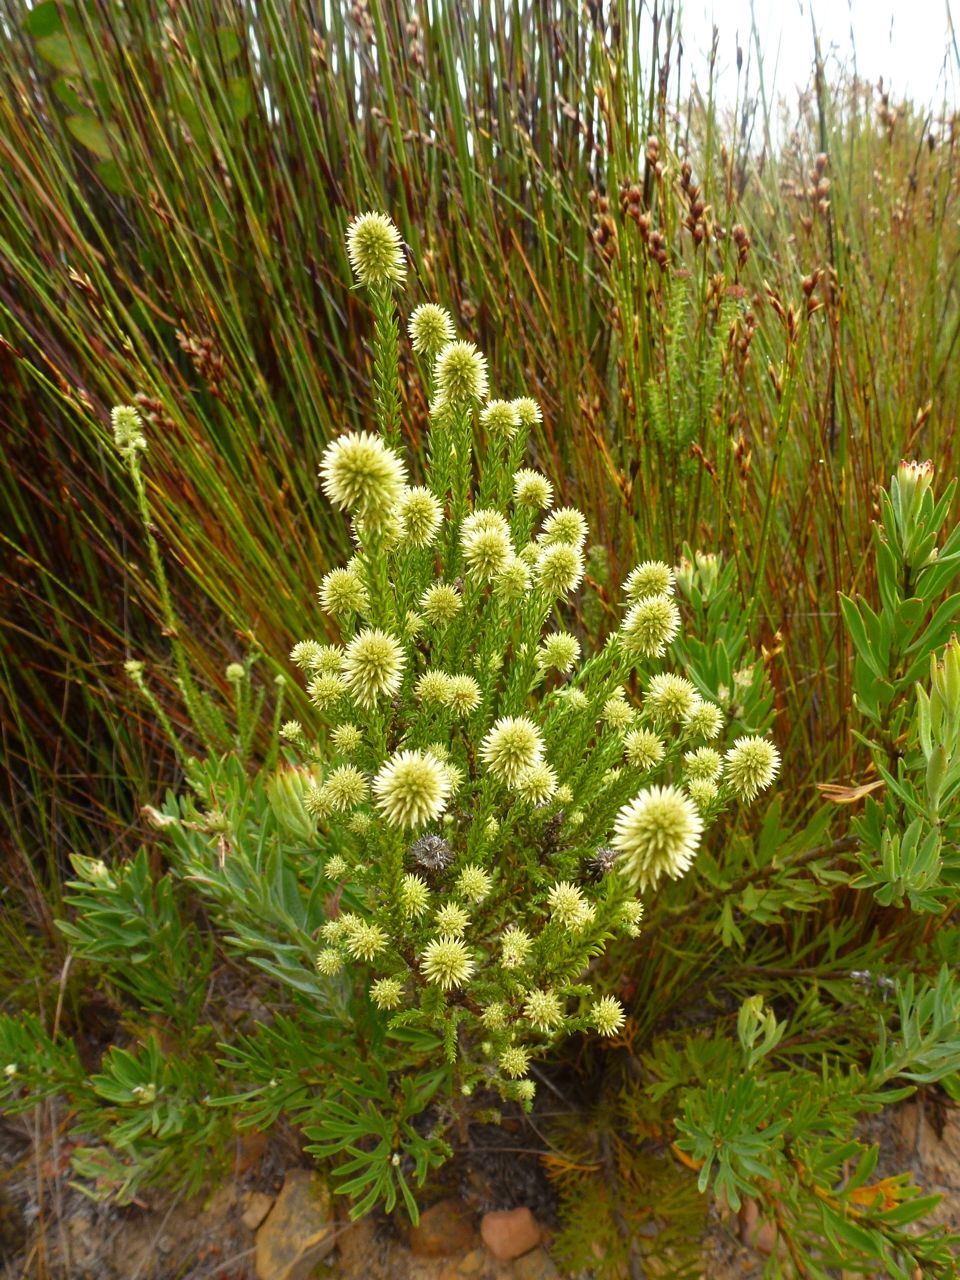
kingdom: Plantae
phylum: Tracheophyta
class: Magnoliopsida
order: Asterales
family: Asteraceae
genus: Seriphium
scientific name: Seriphium spirale
